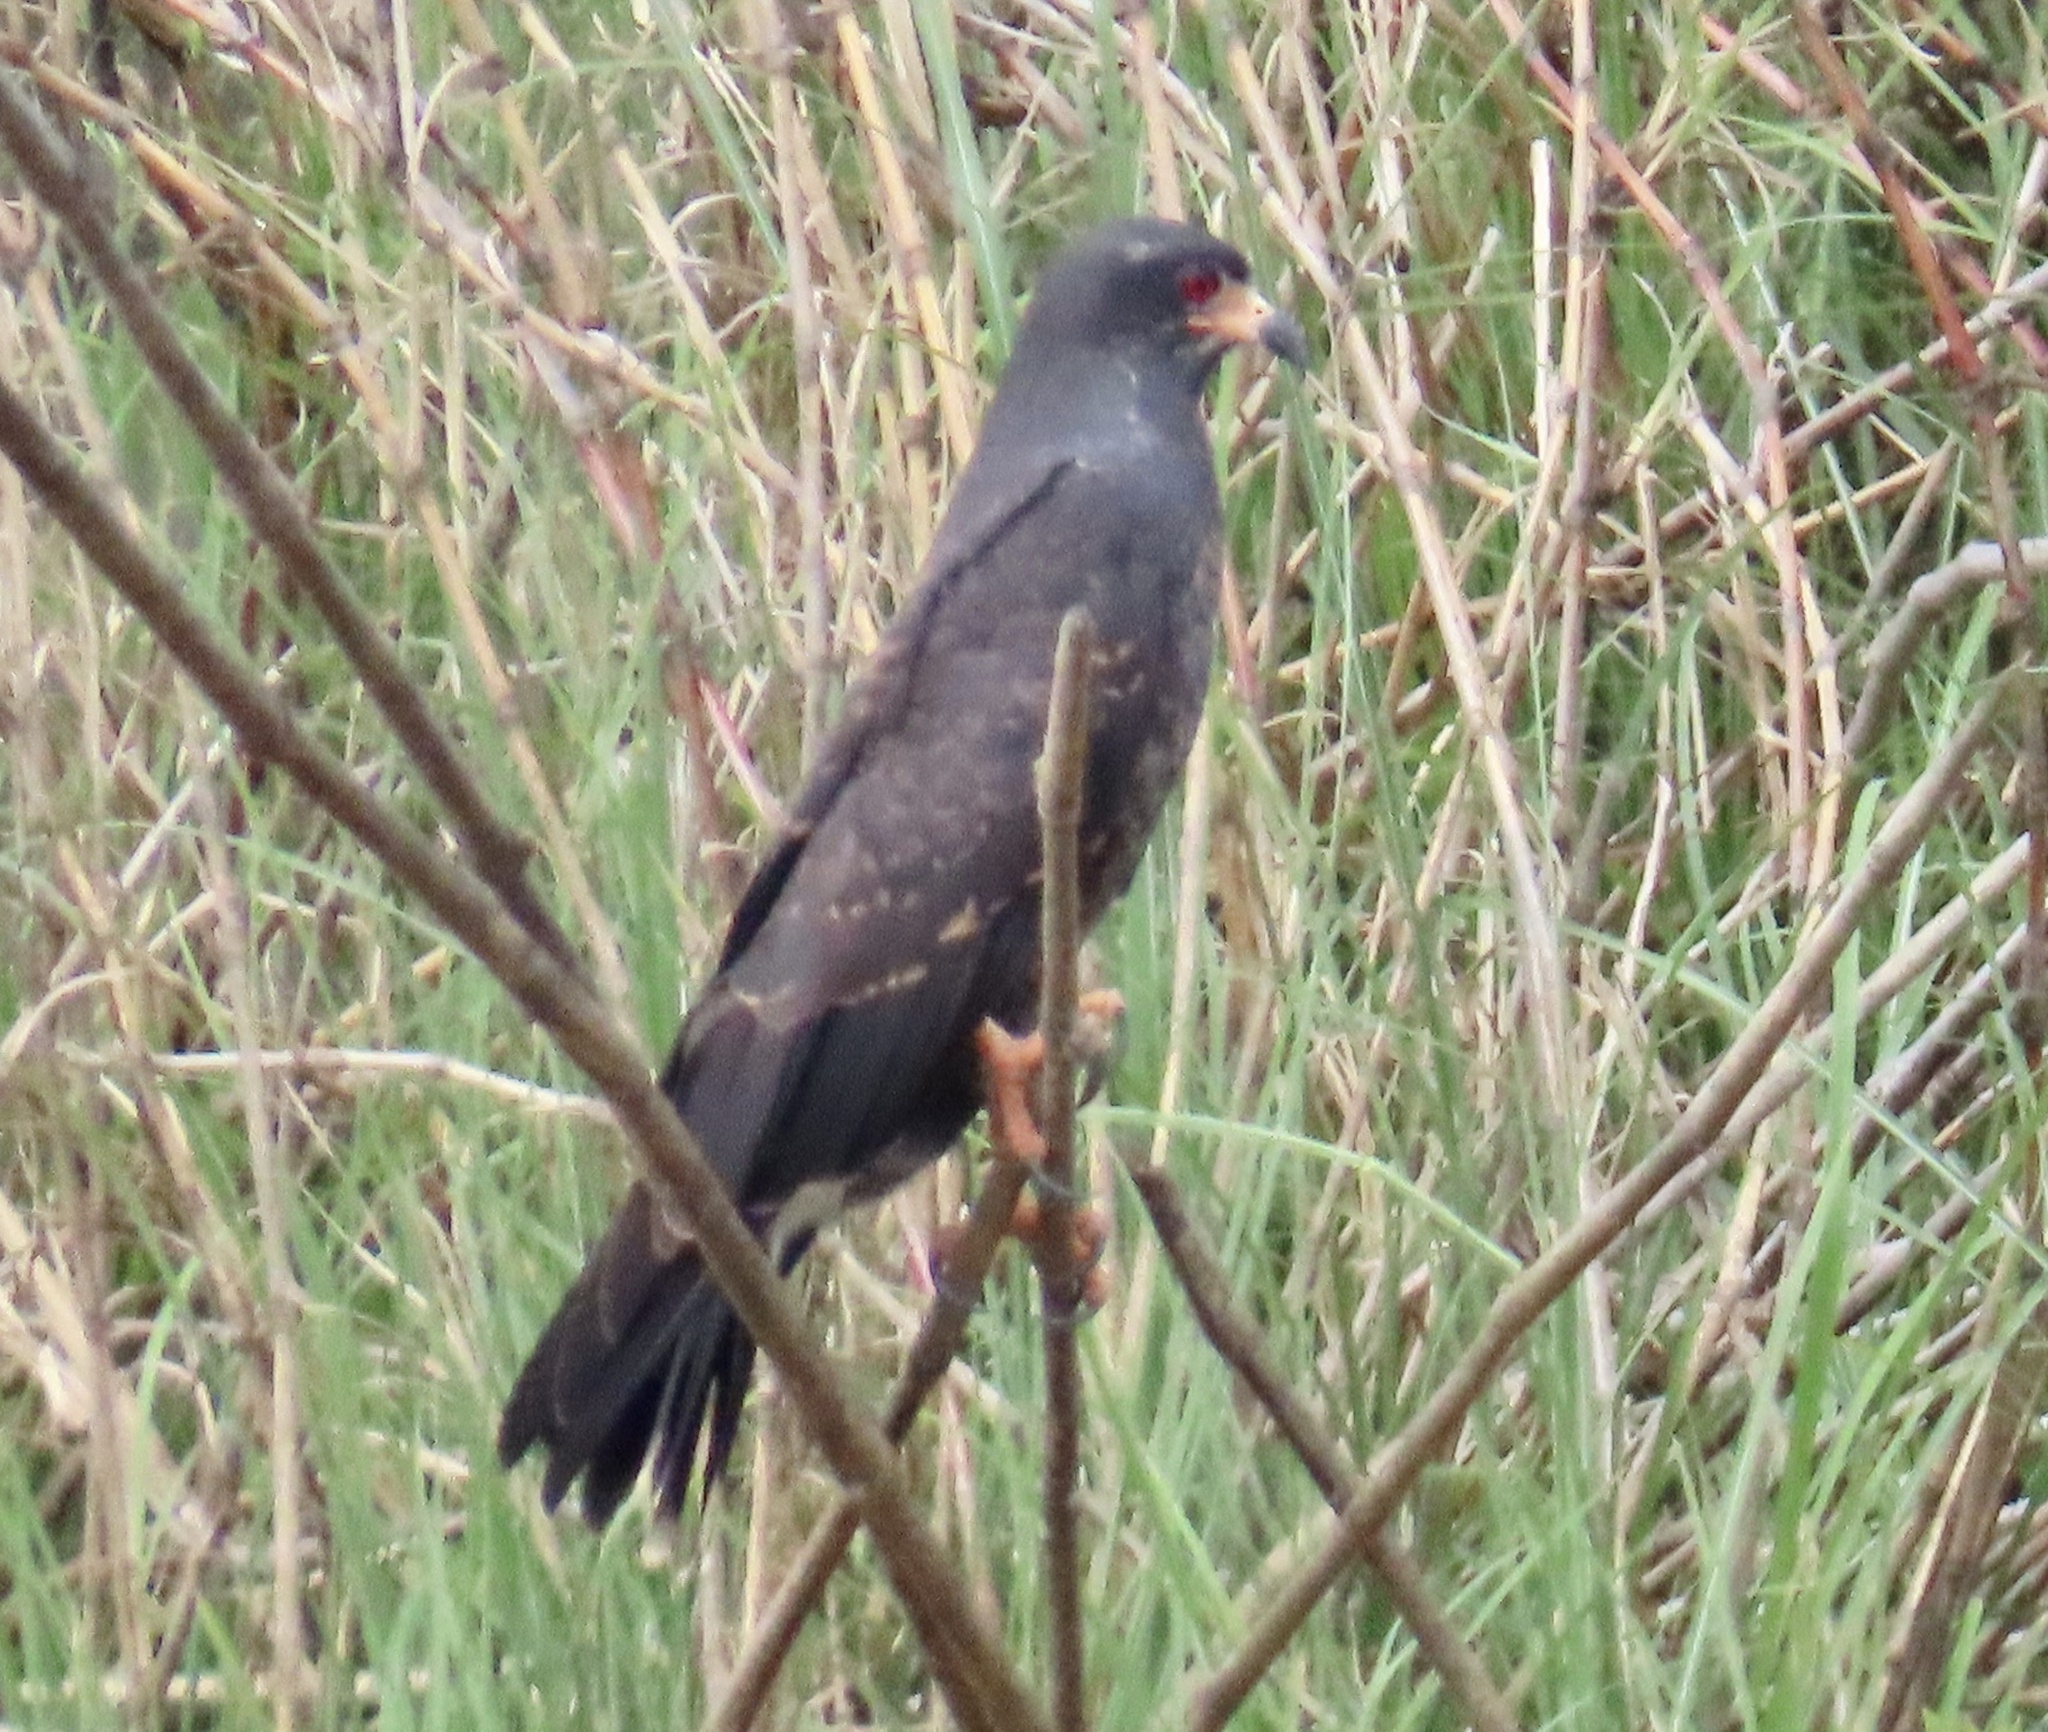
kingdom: Animalia
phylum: Chordata
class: Aves
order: Accipitriformes
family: Accipitridae
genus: Rostrhamus
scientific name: Rostrhamus sociabilis
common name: Snail kite
